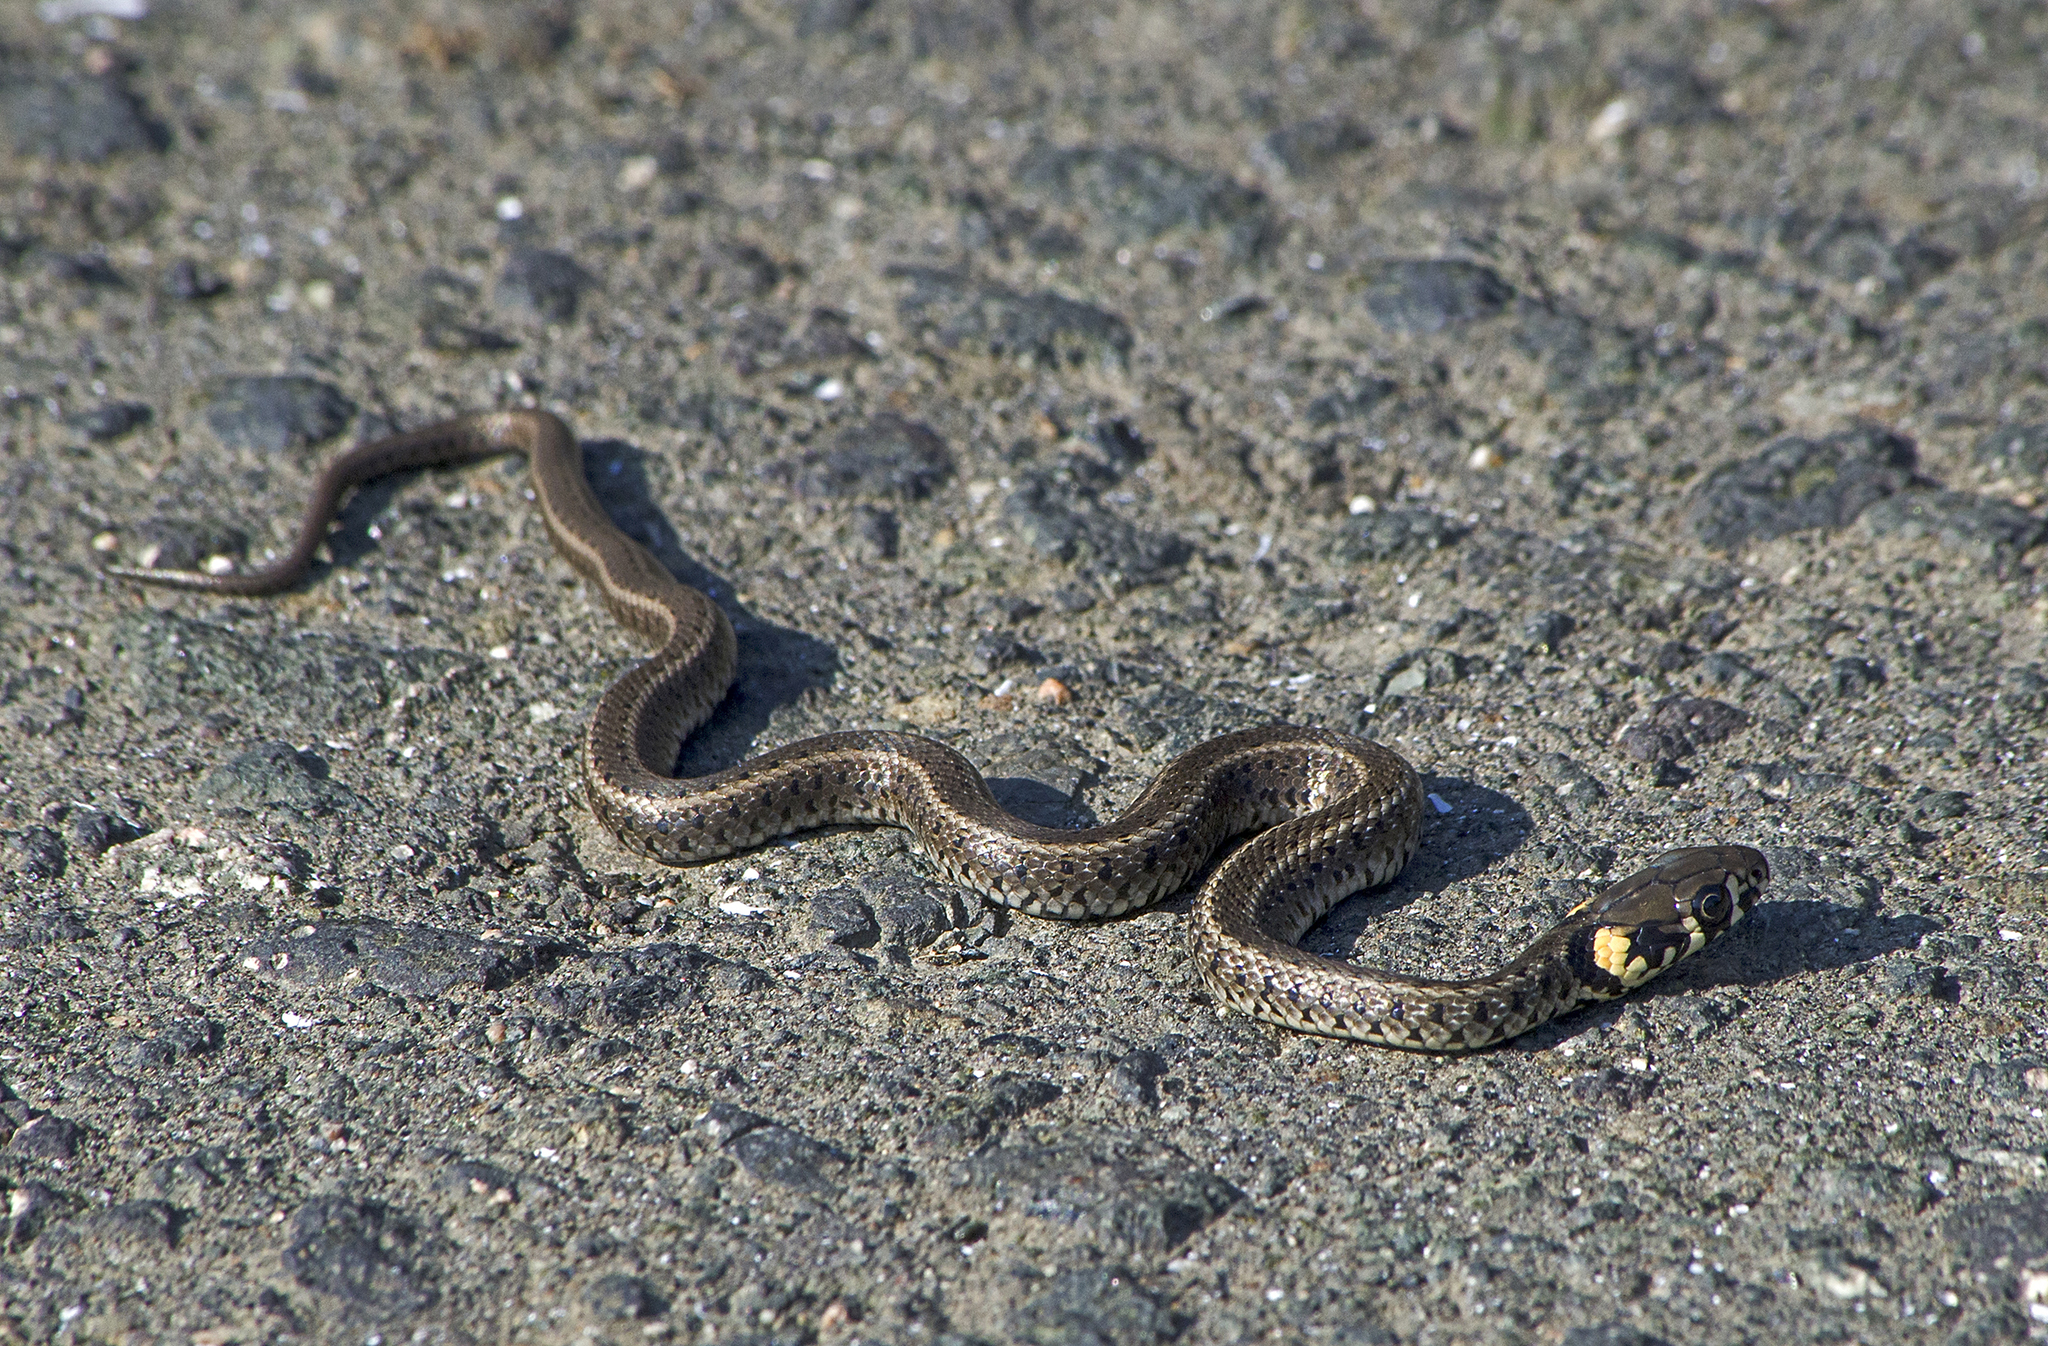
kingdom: Animalia
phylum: Chordata
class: Squamata
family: Colubridae
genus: Natrix
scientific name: Natrix natrix
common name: Grass snake
